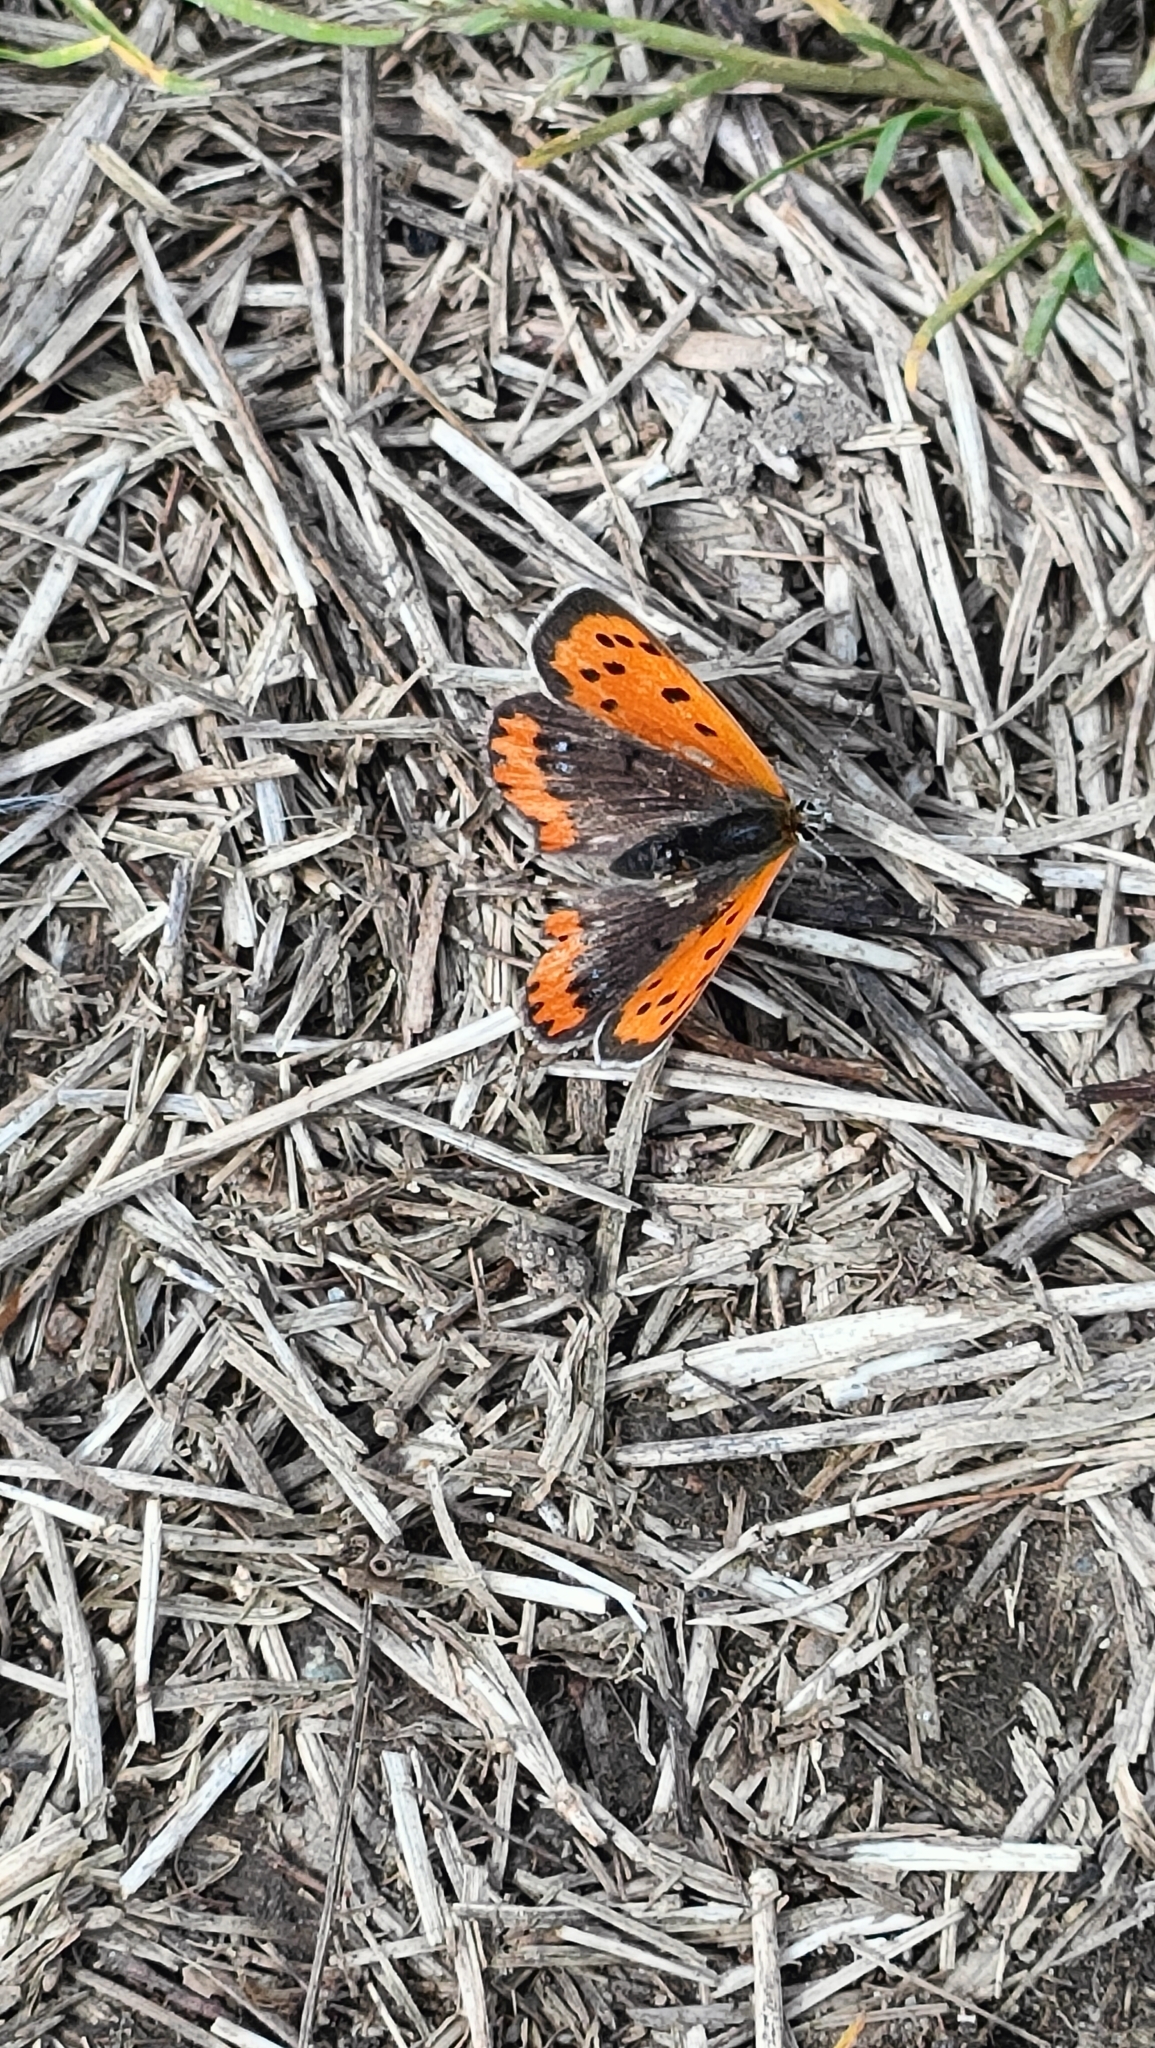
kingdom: Animalia
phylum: Arthropoda
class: Insecta
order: Lepidoptera
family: Lycaenidae
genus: Lycaena
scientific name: Lycaena phlaeas
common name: Small copper
